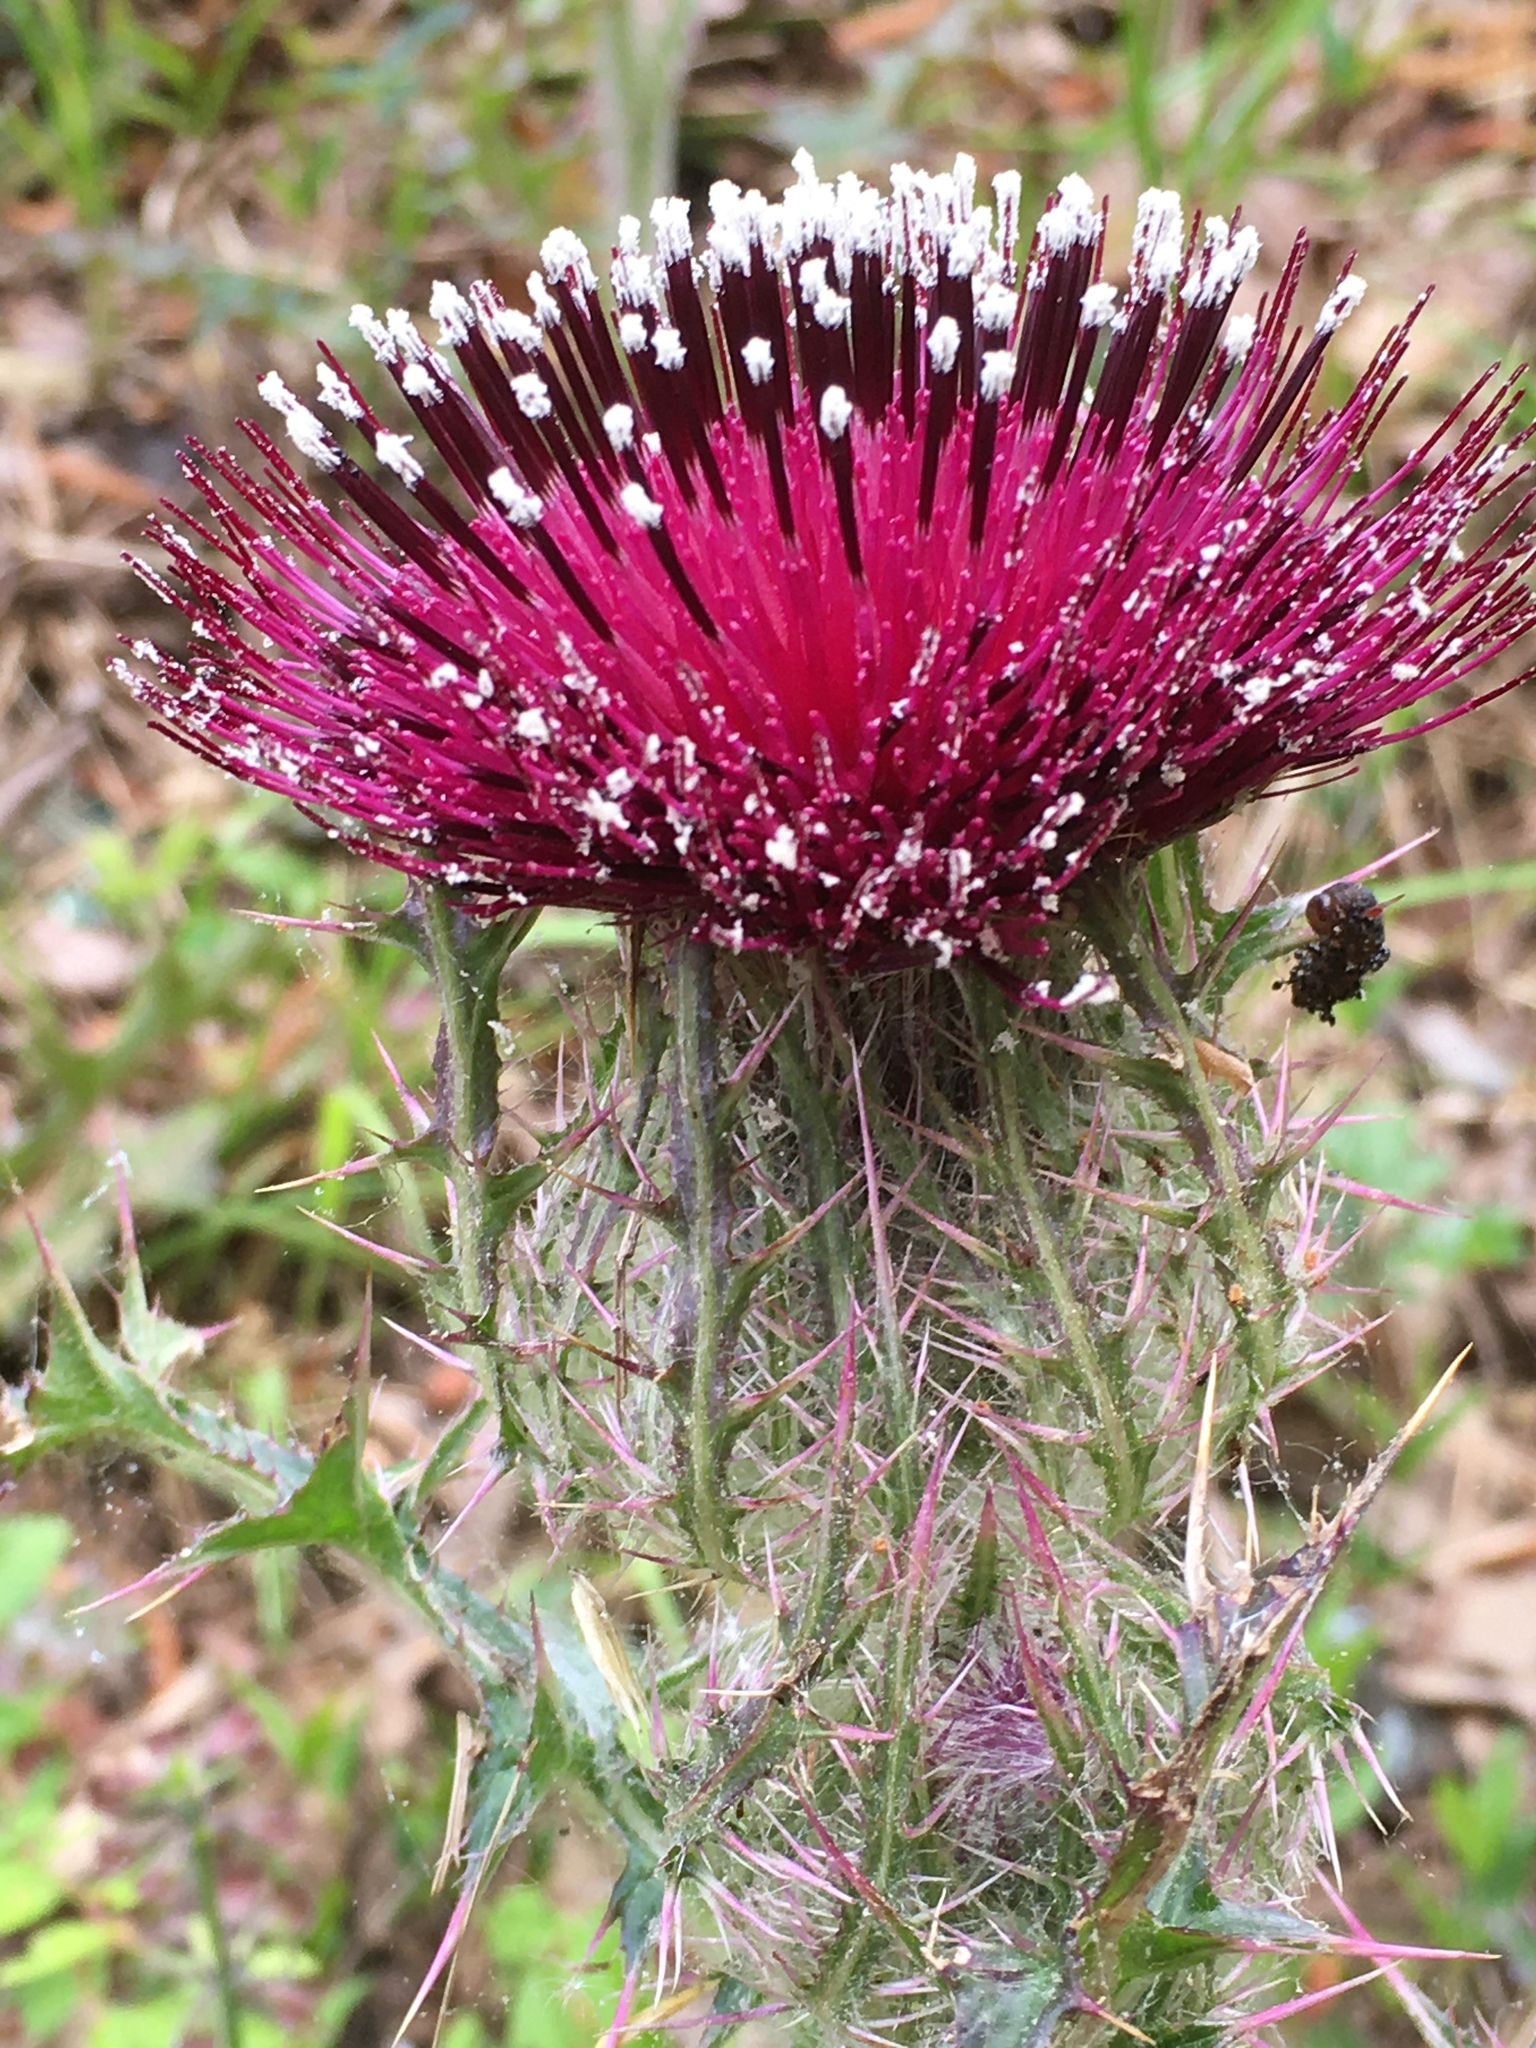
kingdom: Plantae
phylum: Tracheophyta
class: Magnoliopsida
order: Asterales
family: Asteraceae
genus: Cirsium
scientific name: Cirsium horridulum
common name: Bristly thistle
